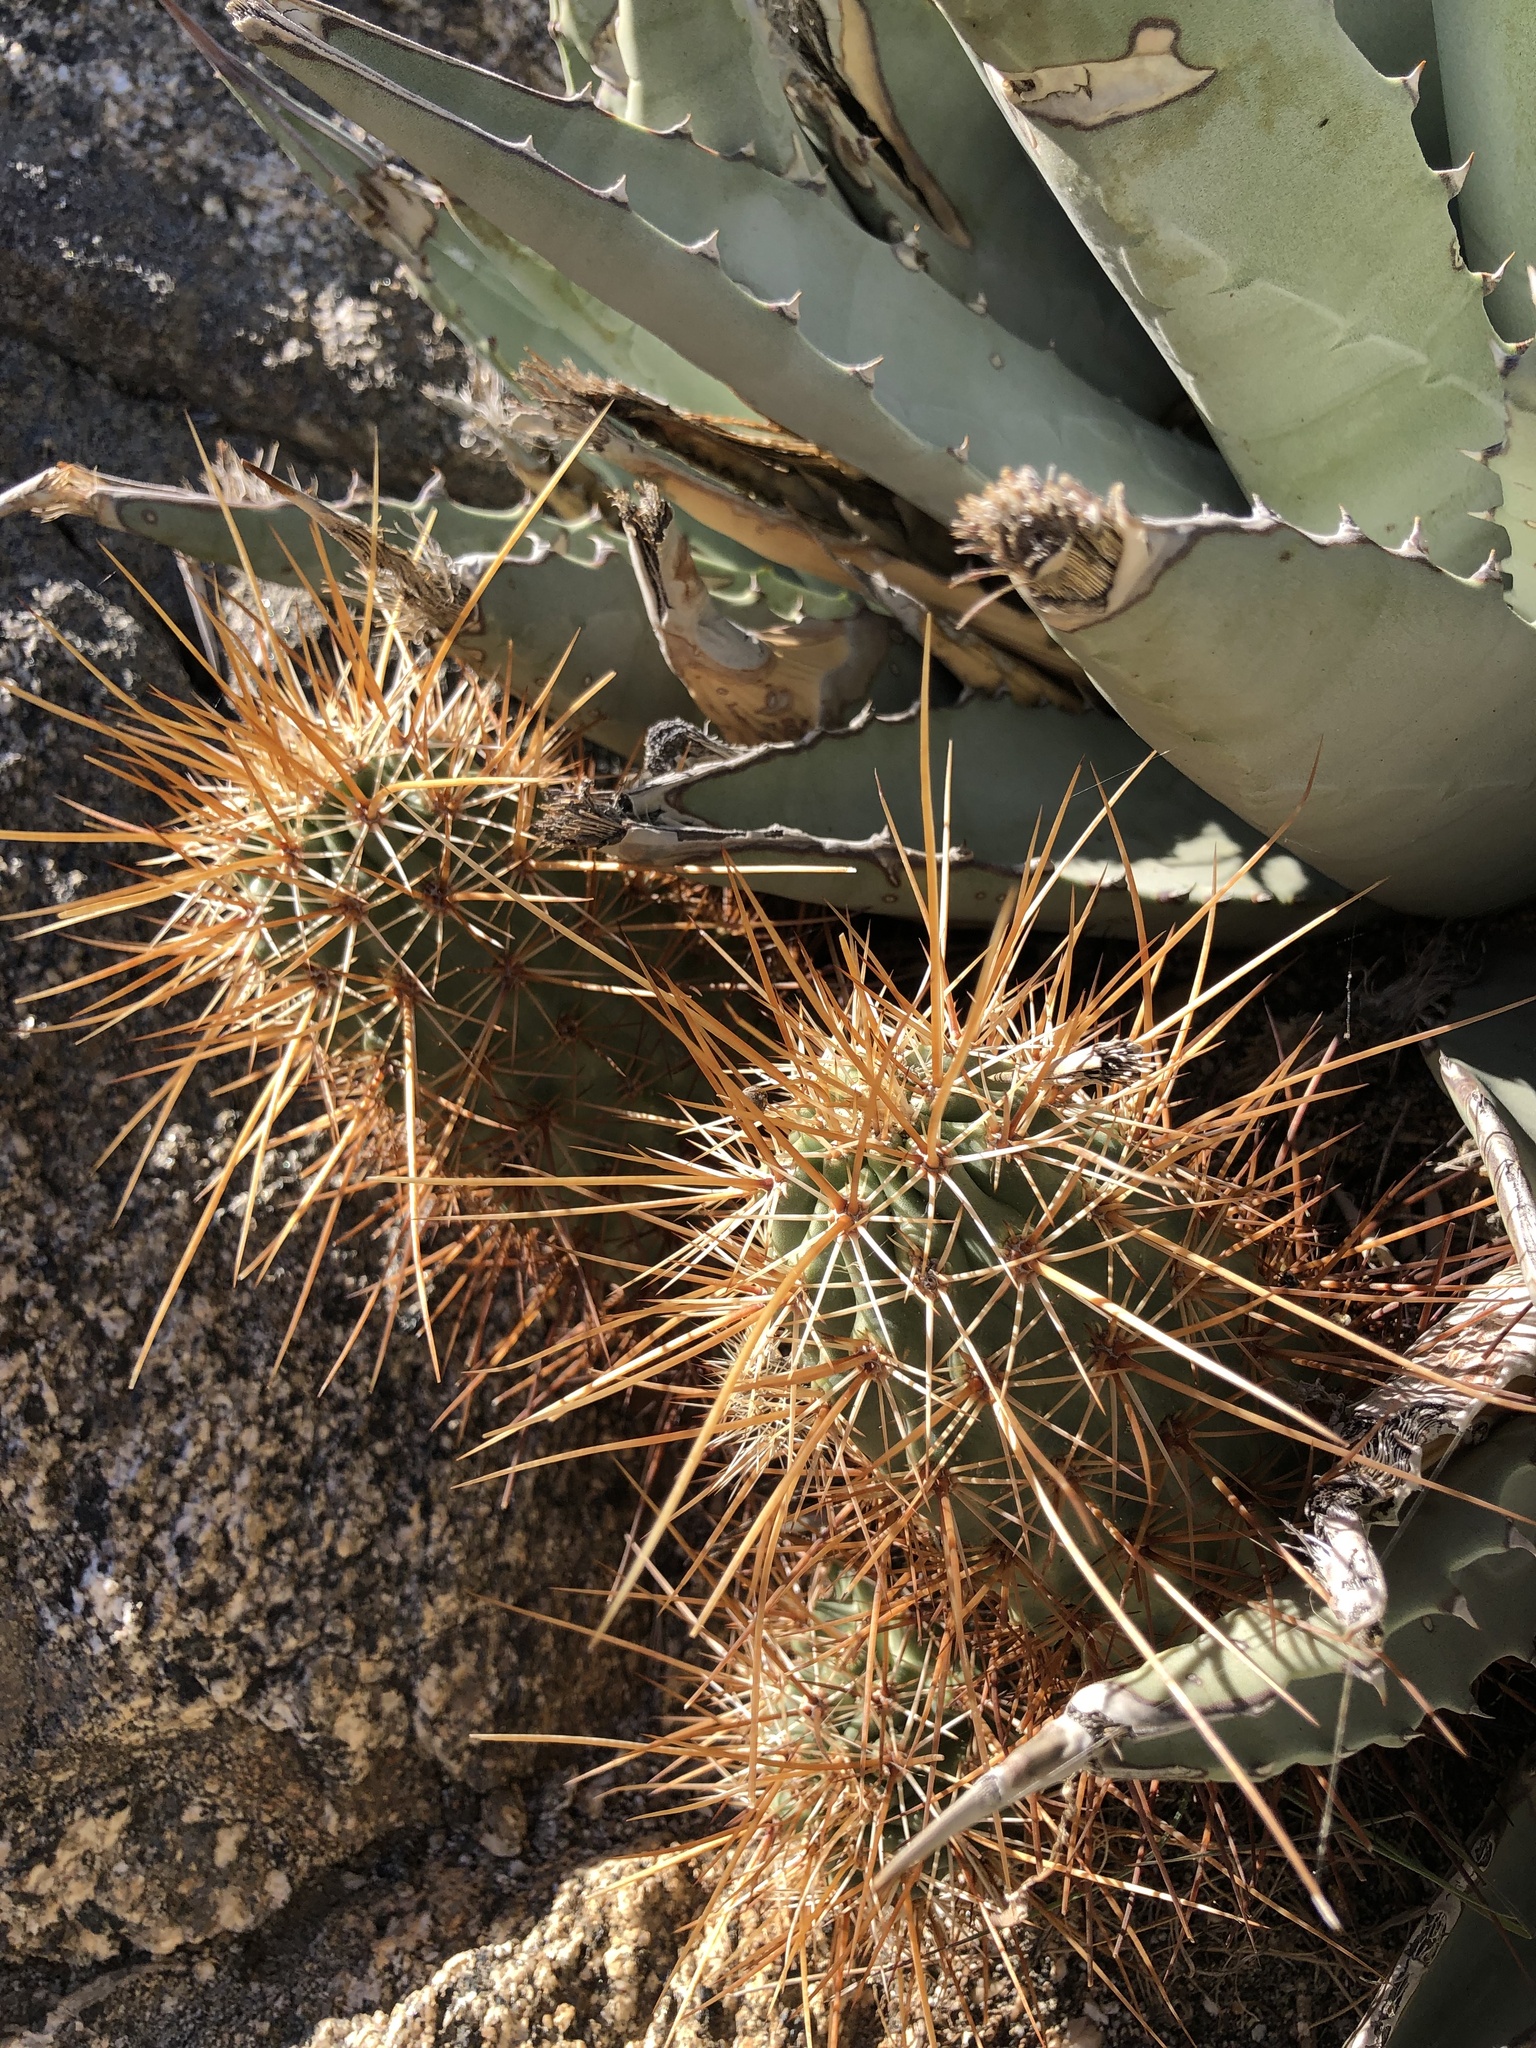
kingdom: Plantae
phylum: Tracheophyta
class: Magnoliopsida
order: Caryophyllales
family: Cactaceae
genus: Echinocereus
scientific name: Echinocereus engelmannii
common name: Engelmann's hedgehog cactus
